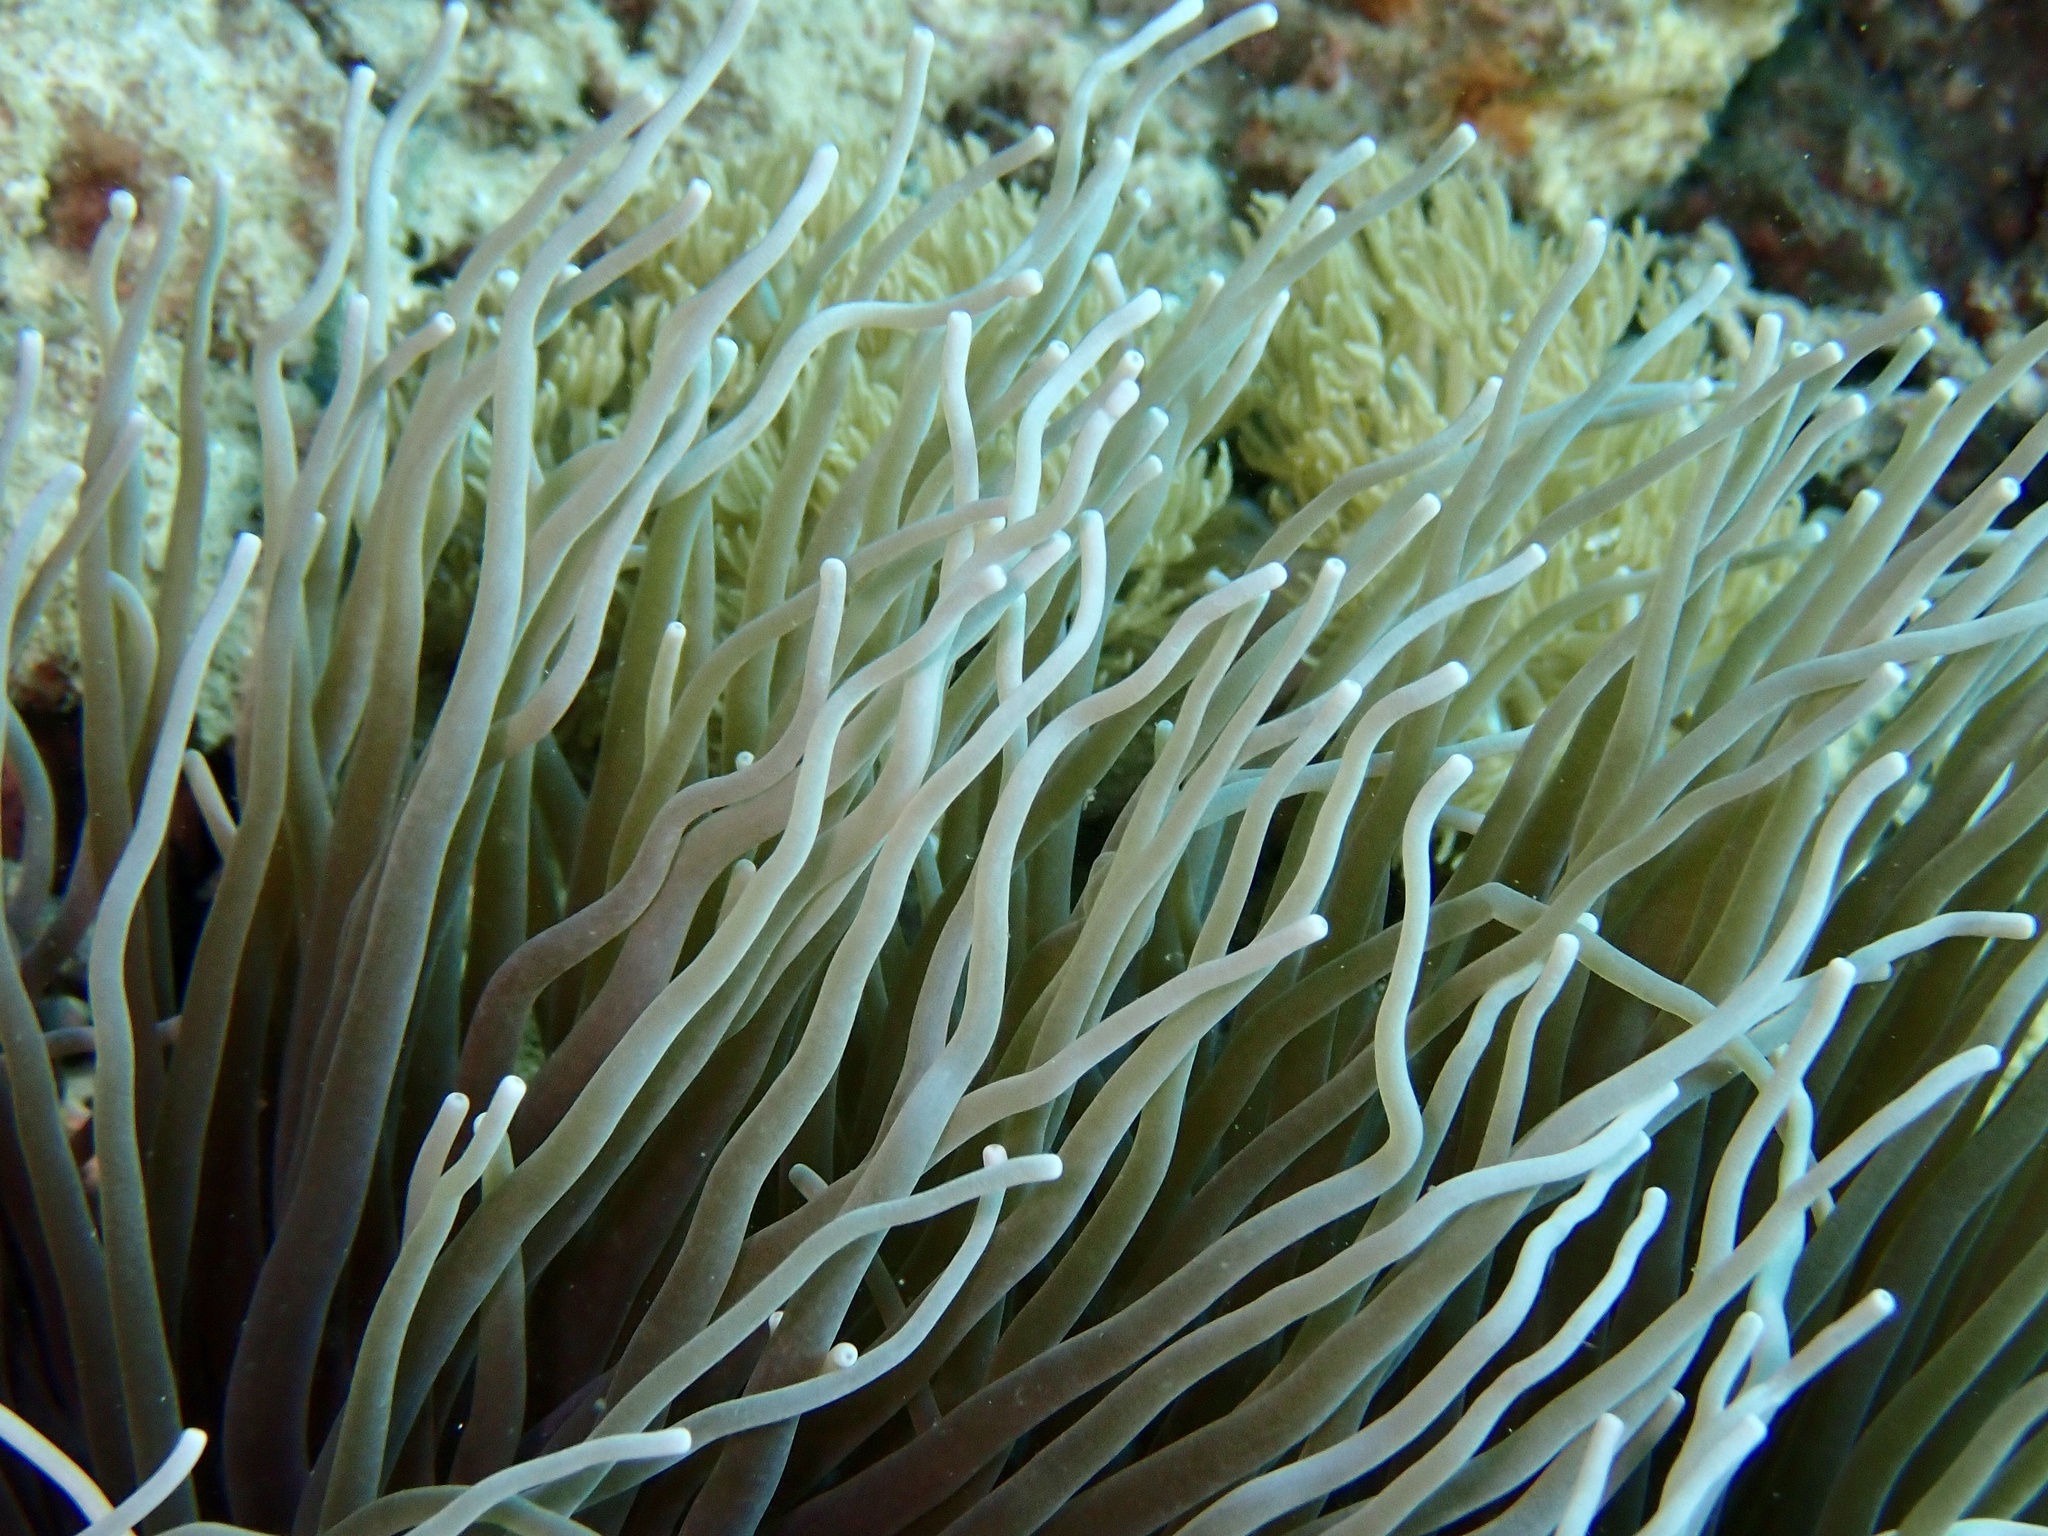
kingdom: Animalia
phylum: Cnidaria
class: Anthozoa
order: Actiniaria
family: Stichodactylidae
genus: Radianthus
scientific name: Radianthus crispa
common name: Leather anemone
